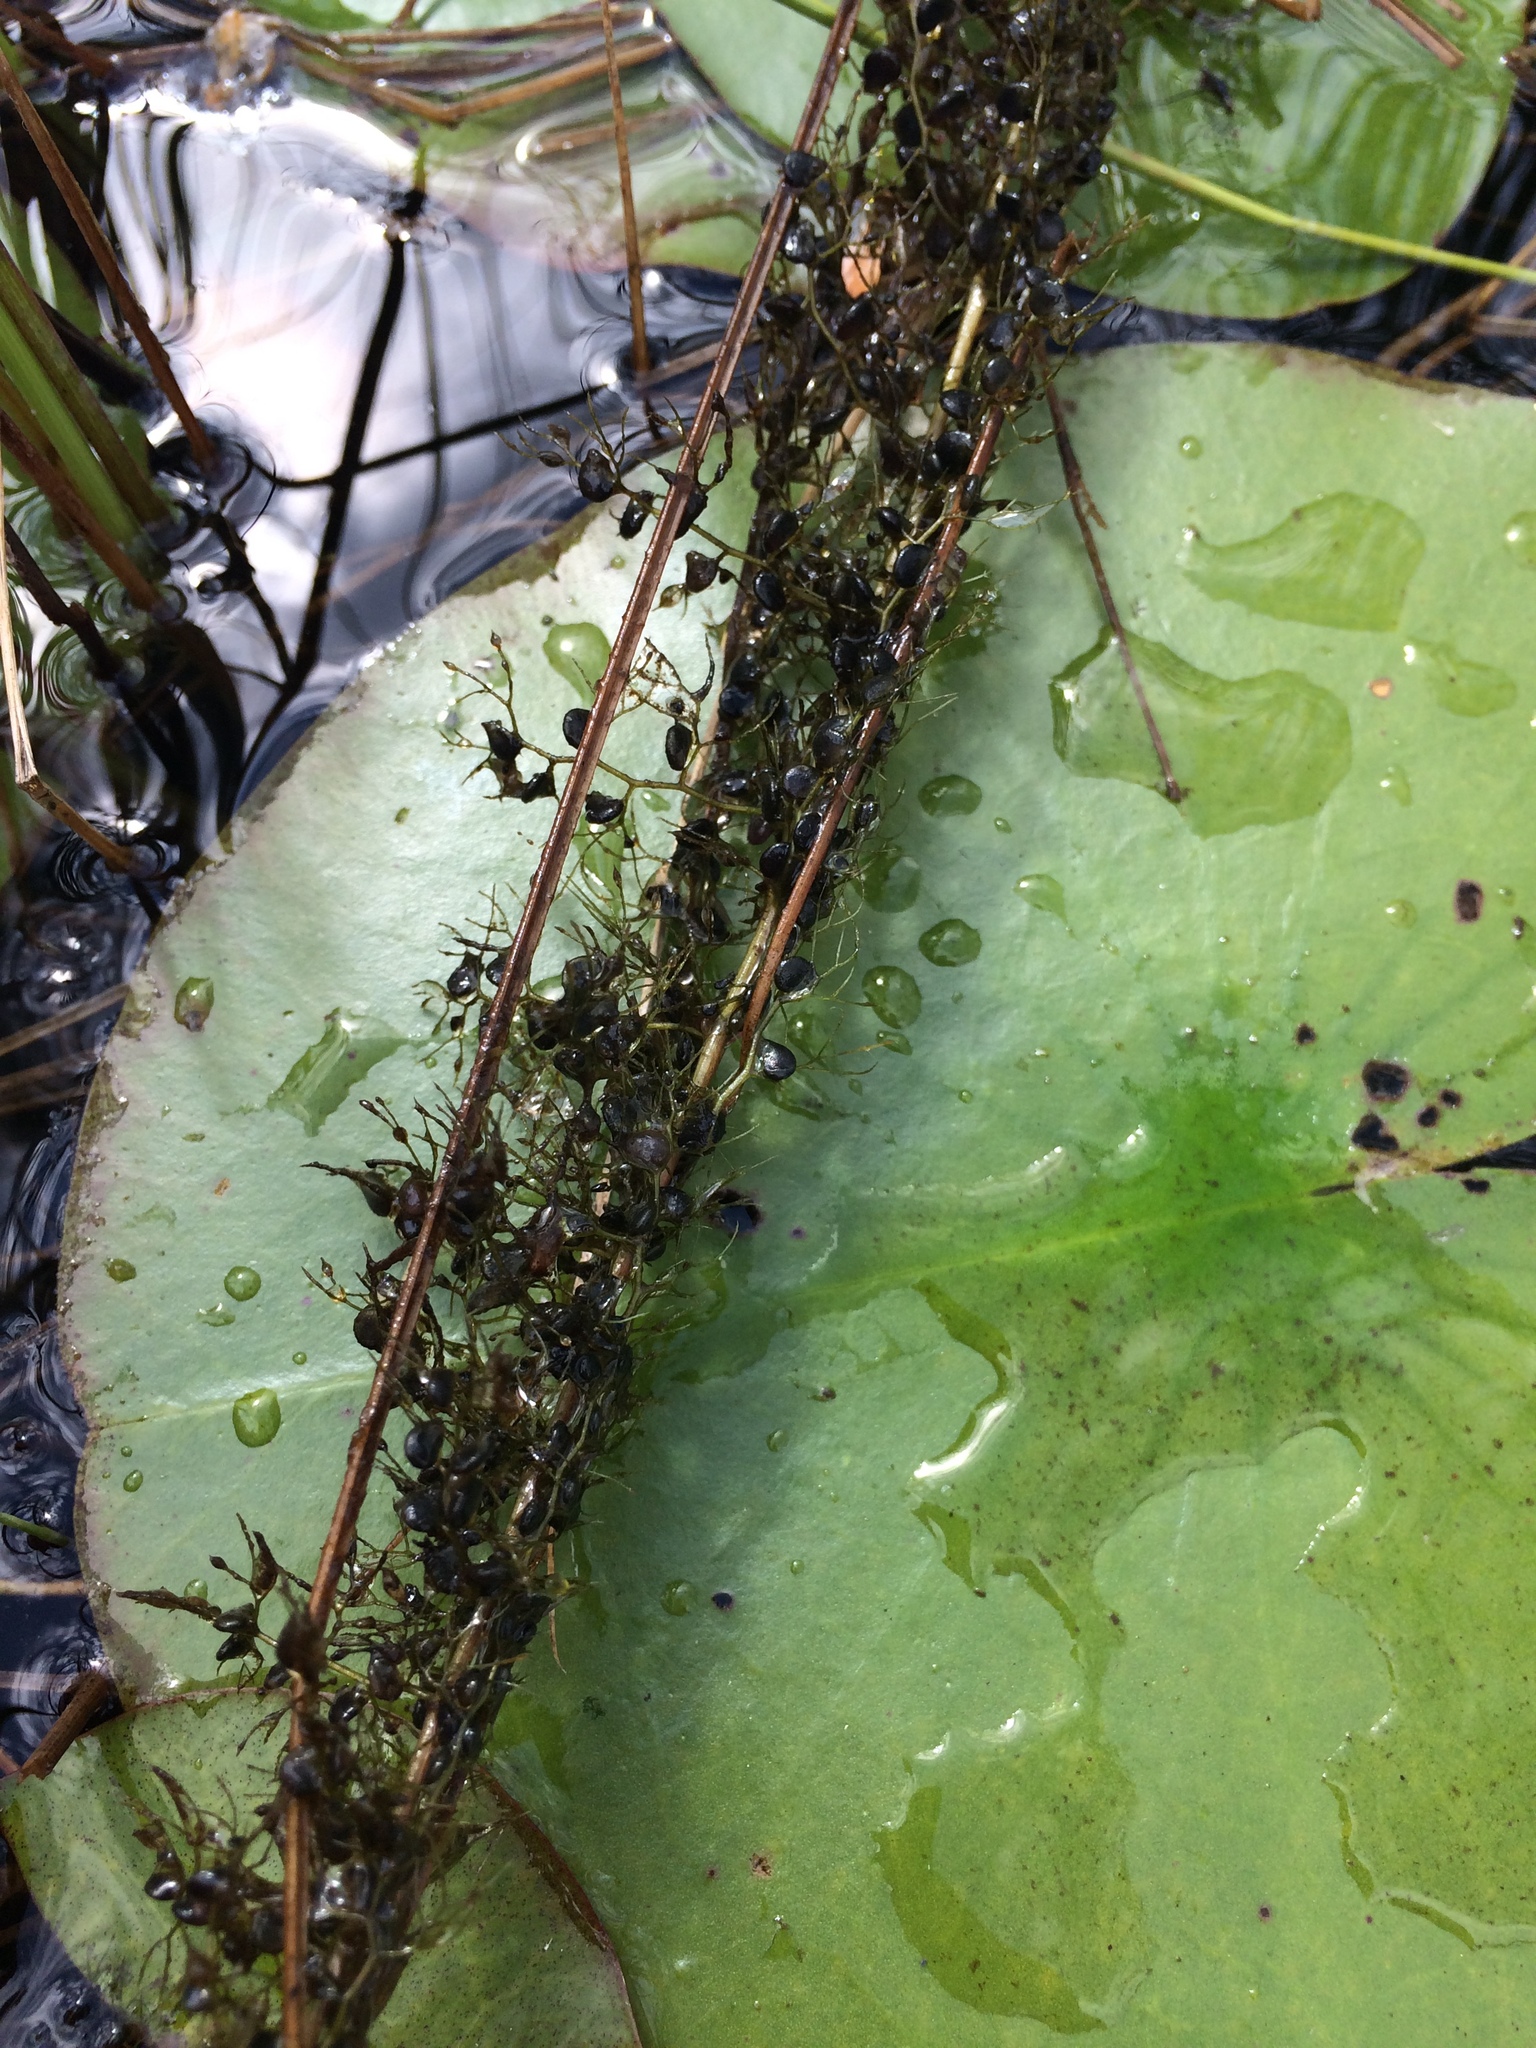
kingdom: Plantae
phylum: Tracheophyta
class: Magnoliopsida
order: Lamiales
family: Lentibulariaceae
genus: Utricularia
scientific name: Utricularia macrorhiza
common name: Common bladderwort
